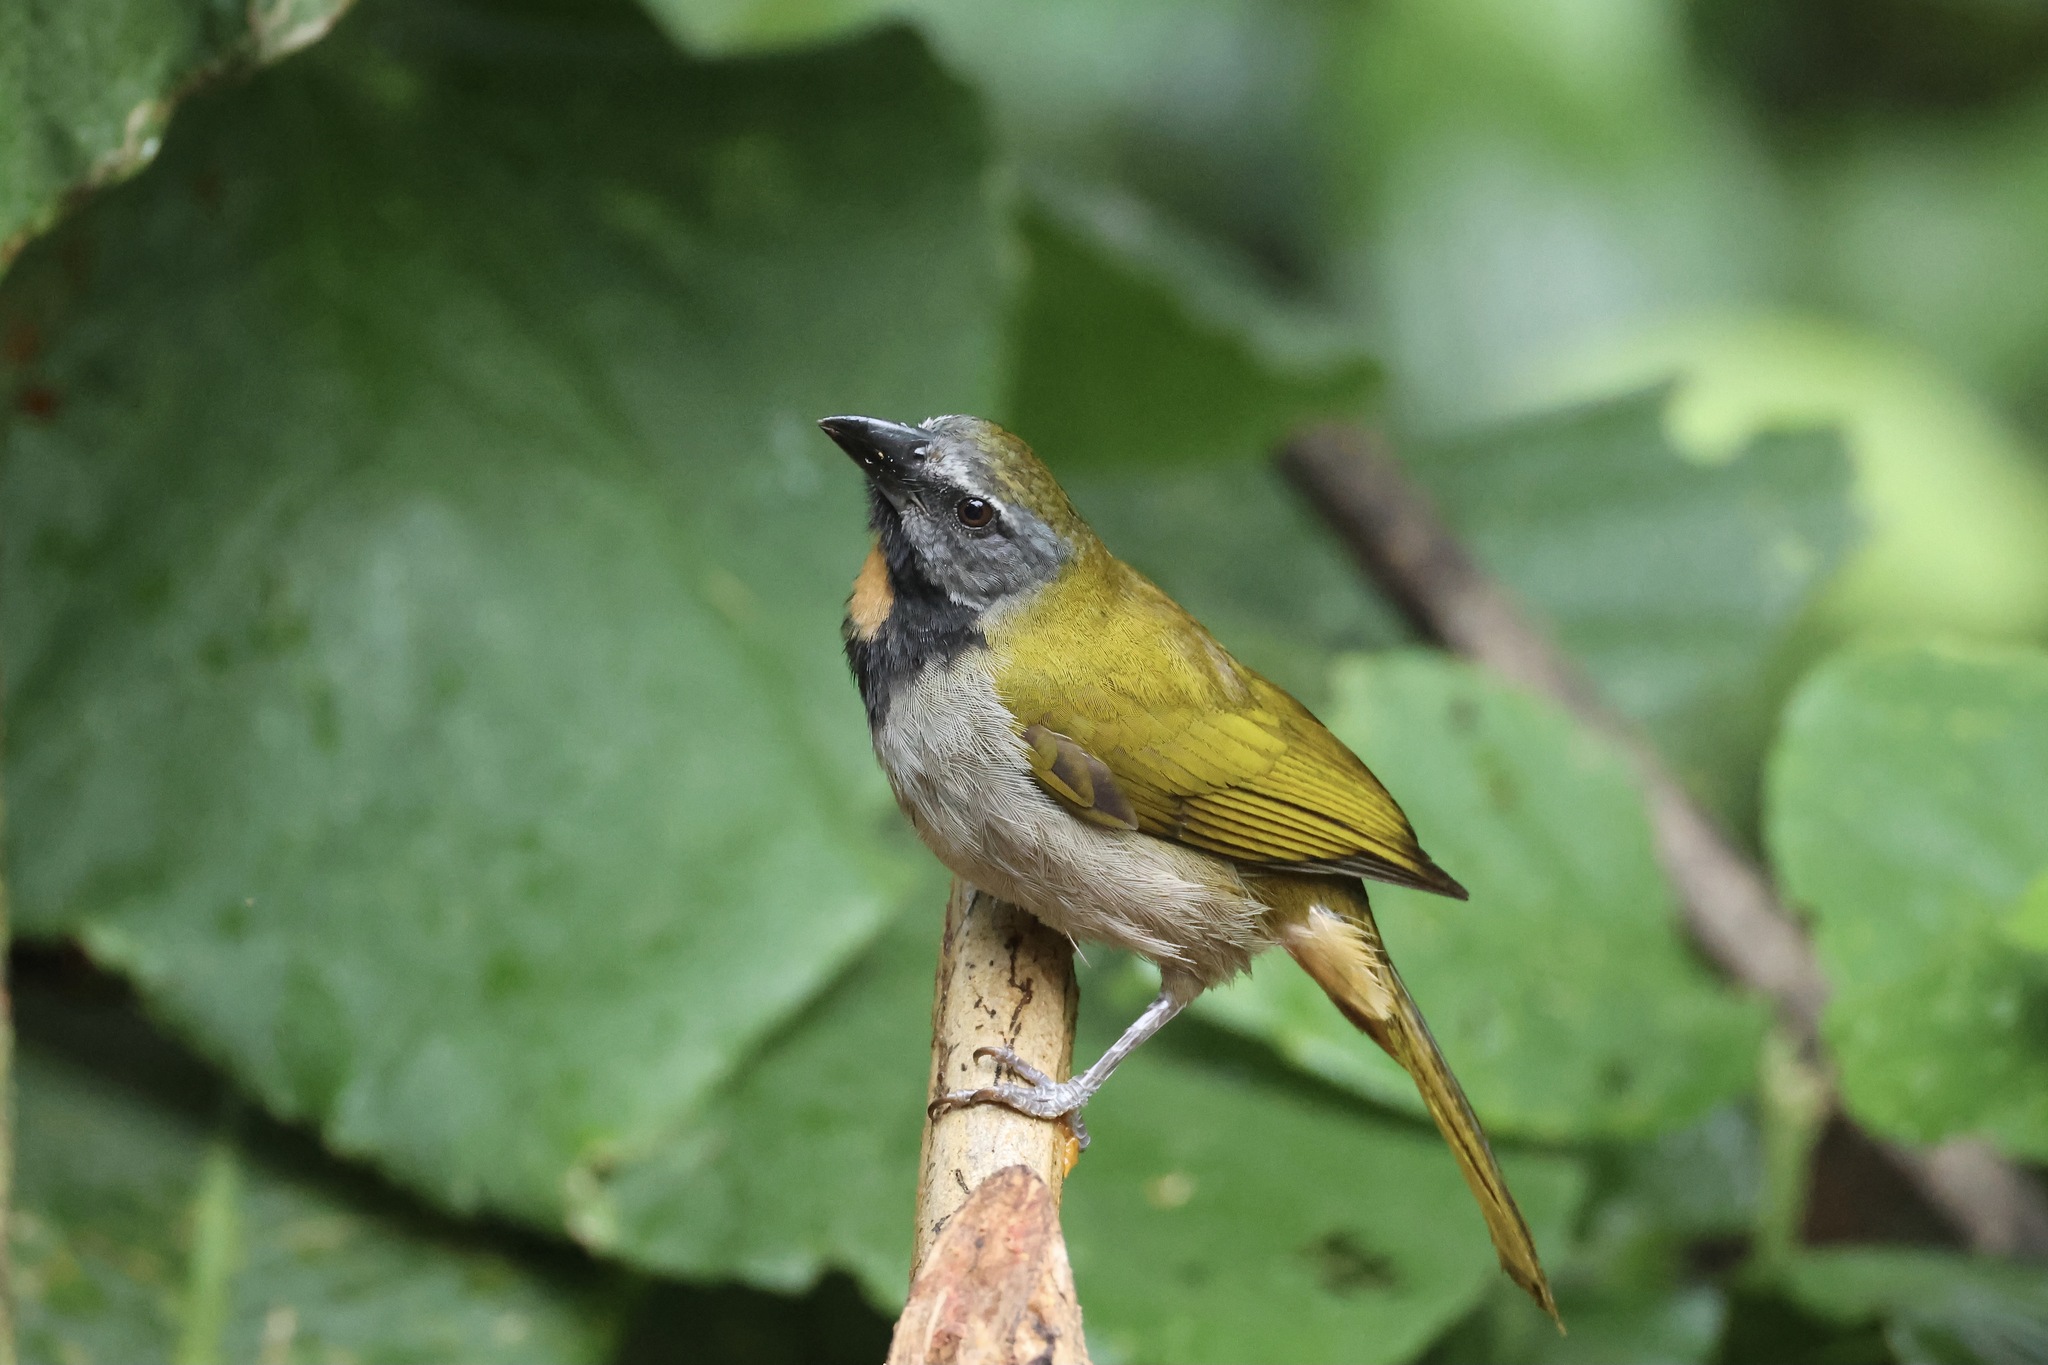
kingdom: Animalia
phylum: Chordata
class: Aves
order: Passeriformes
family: Thraupidae
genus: Saltator
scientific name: Saltator maximus
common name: Buff-throated saltator
